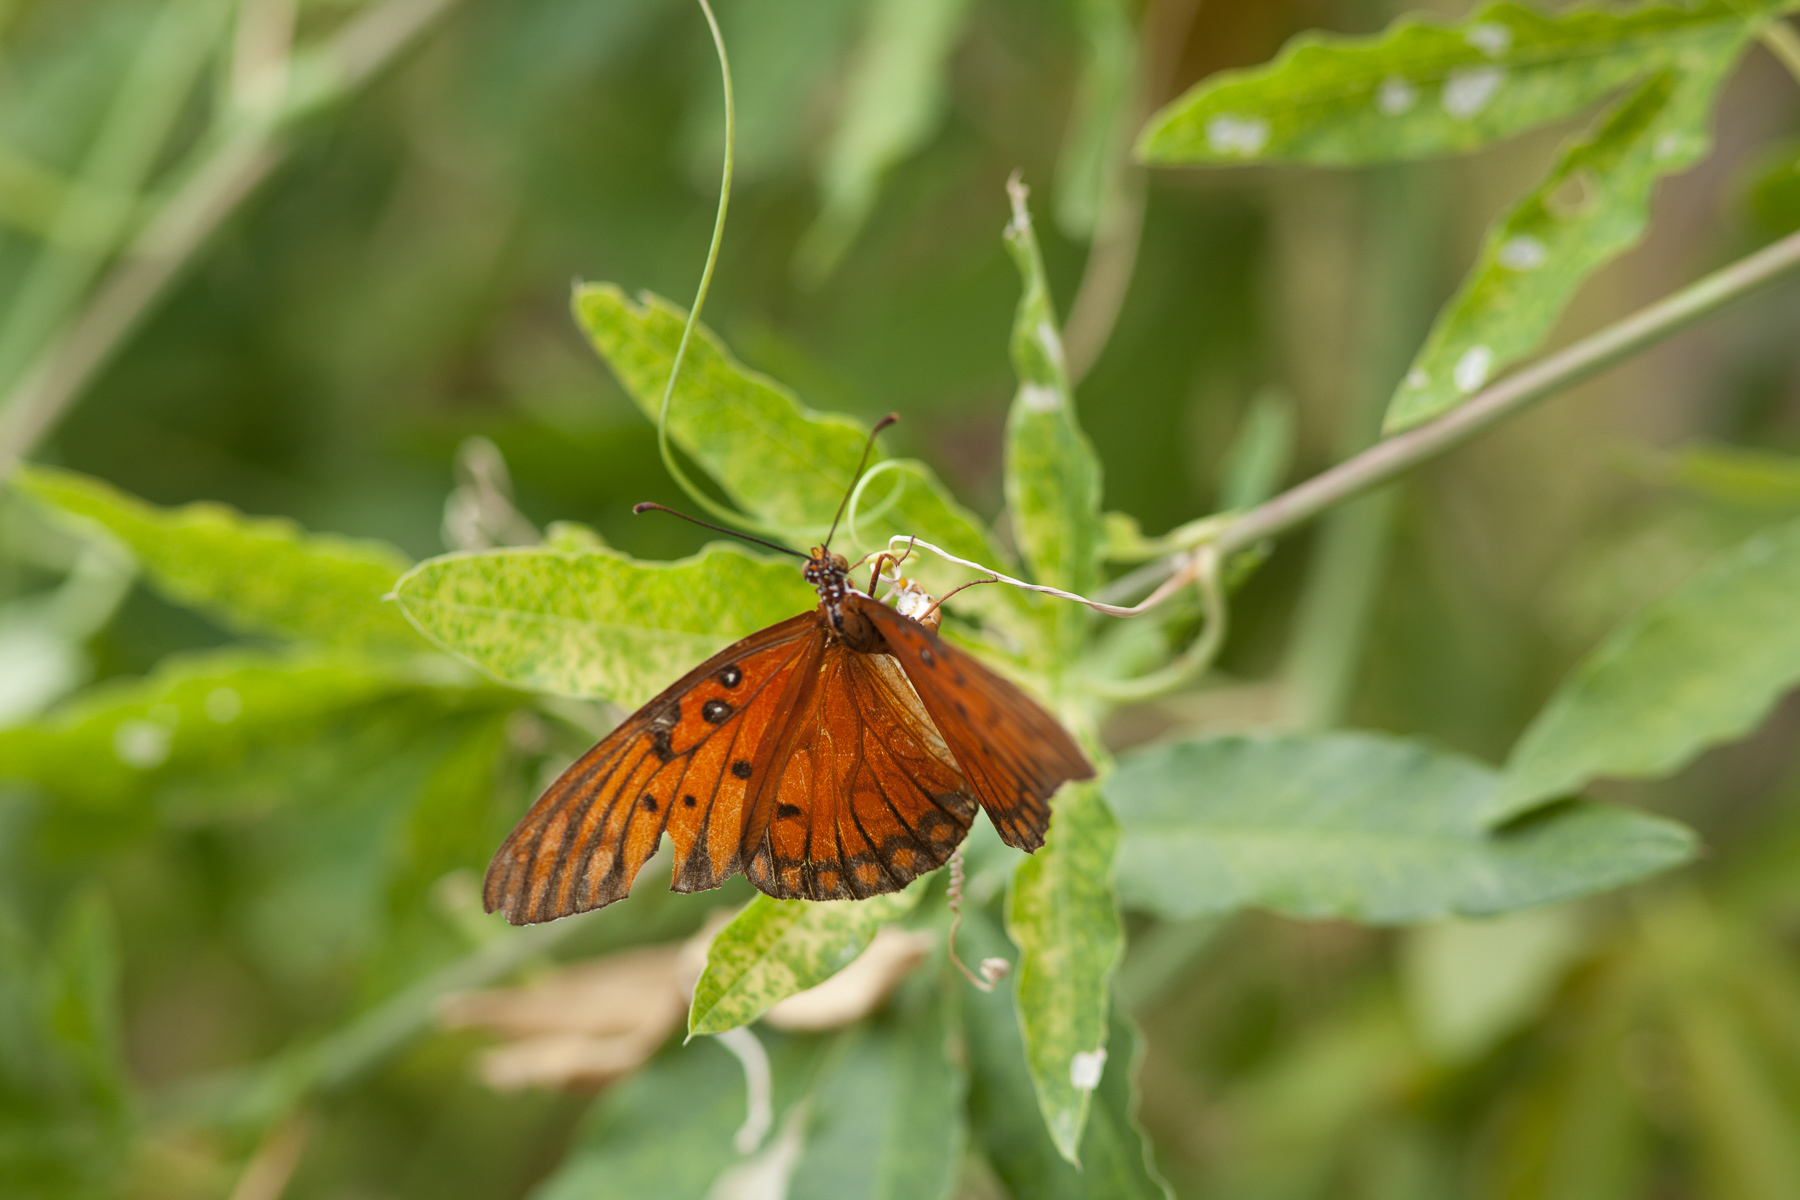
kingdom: Animalia
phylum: Arthropoda
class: Insecta
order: Lepidoptera
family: Nymphalidae
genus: Dione
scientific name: Dione vanillae
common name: Gulf fritillary
